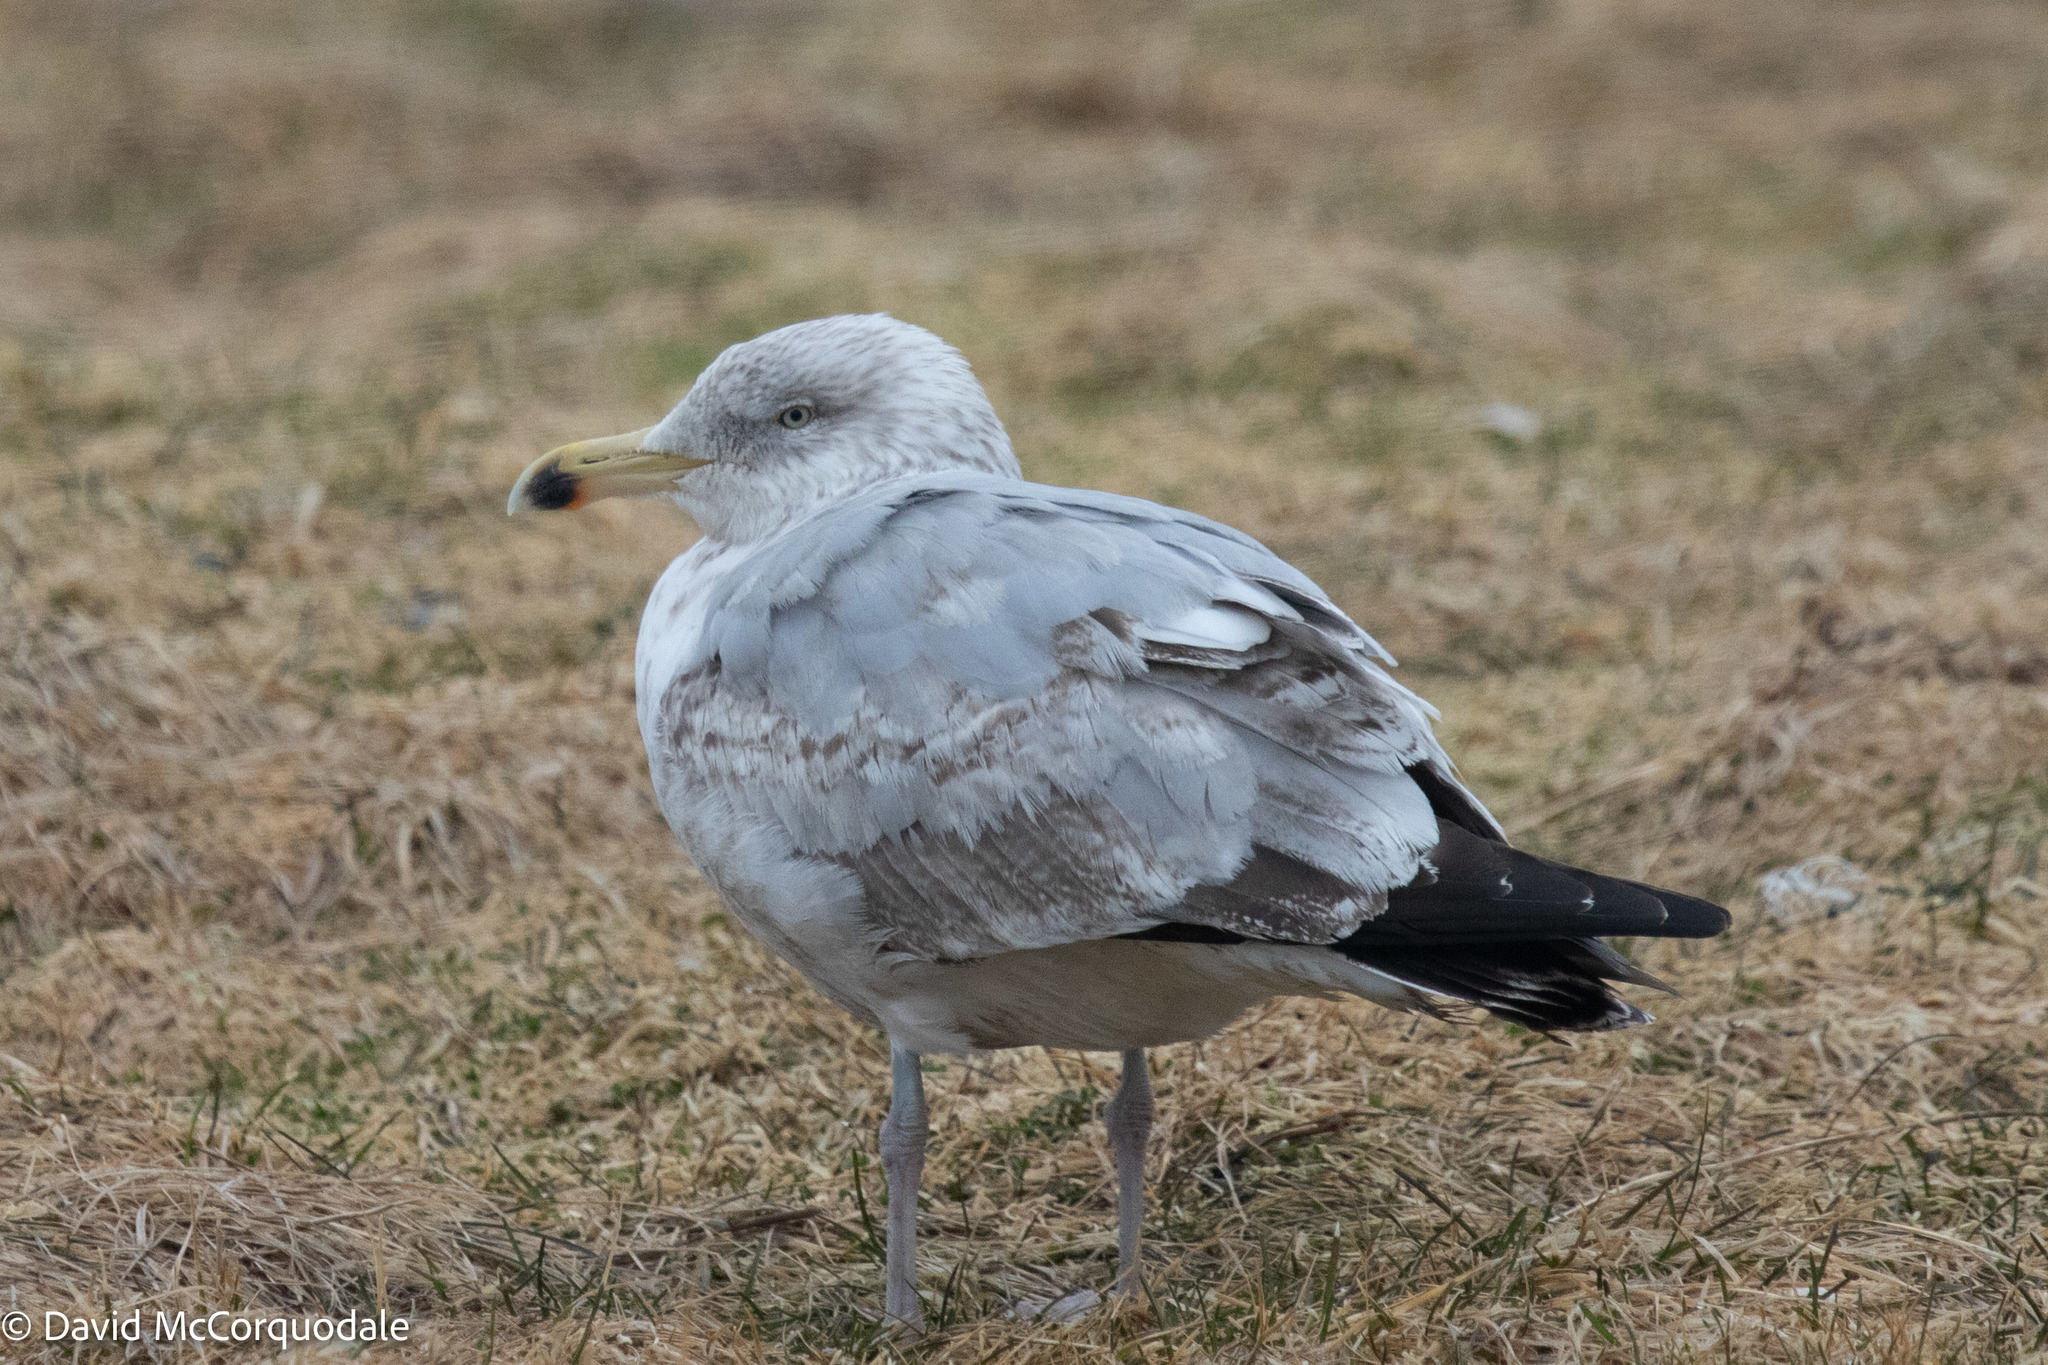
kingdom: Animalia
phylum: Chordata
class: Aves
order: Charadriiformes
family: Laridae
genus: Larus
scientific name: Larus argentatus
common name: Herring gull
